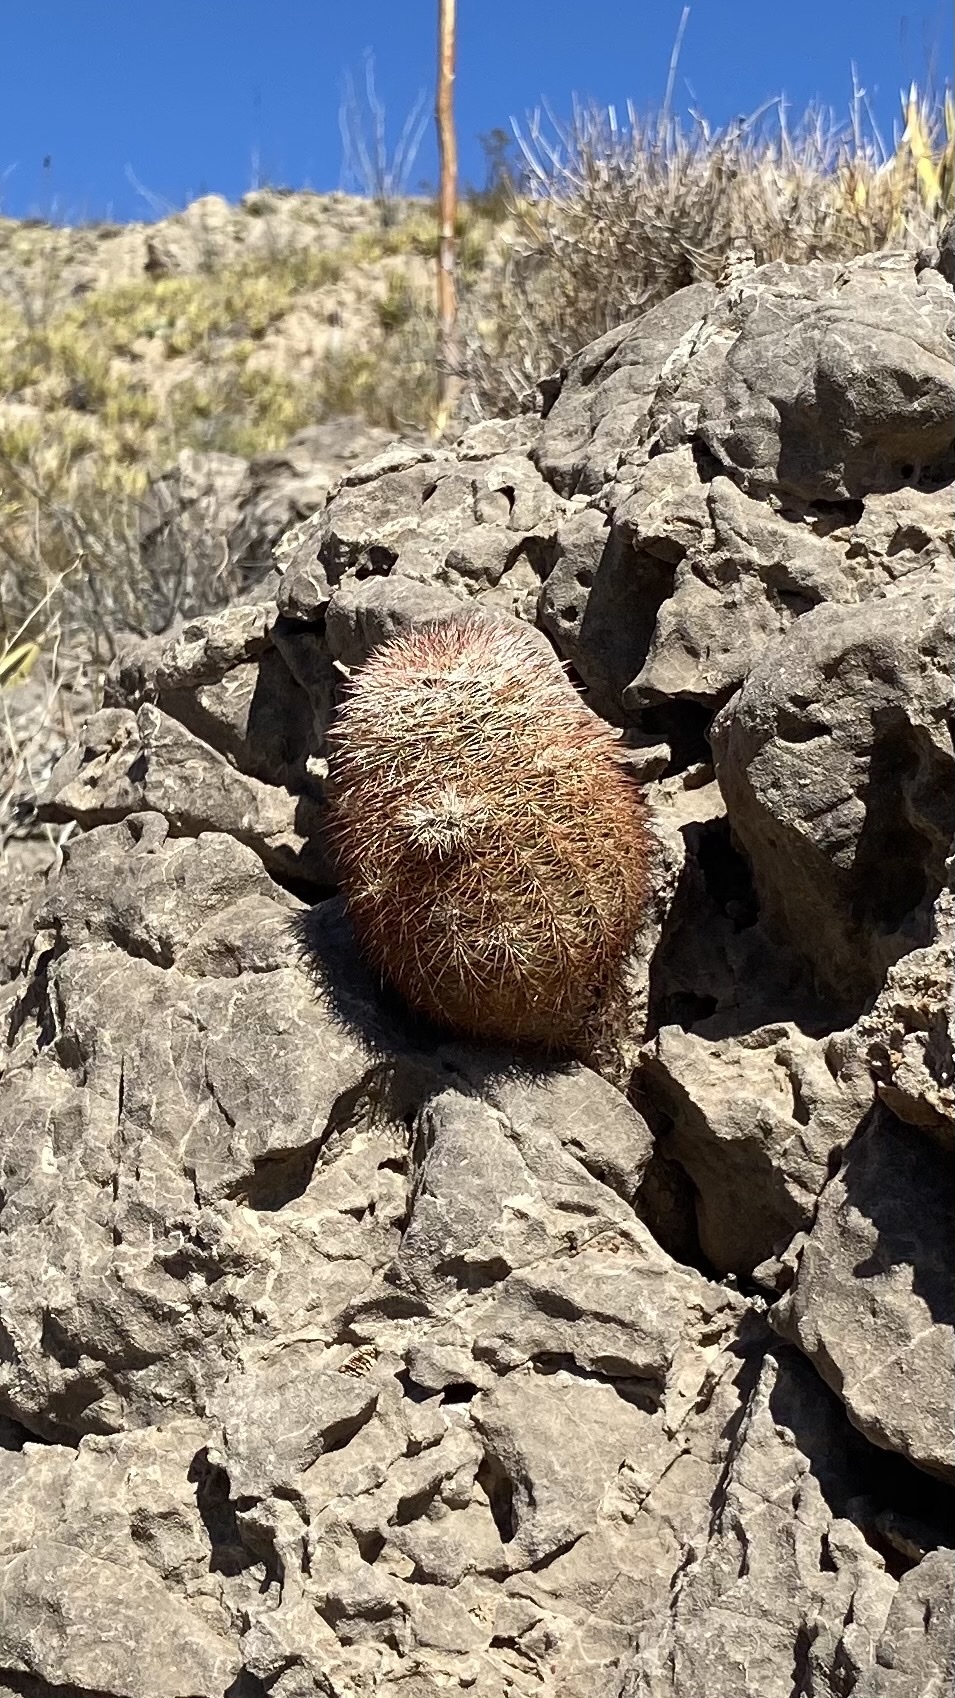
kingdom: Plantae
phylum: Tracheophyta
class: Magnoliopsida
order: Caryophyllales
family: Cactaceae
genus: Echinocereus
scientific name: Echinocereus dasyacanthus
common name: Spiny hedgehog cactus
